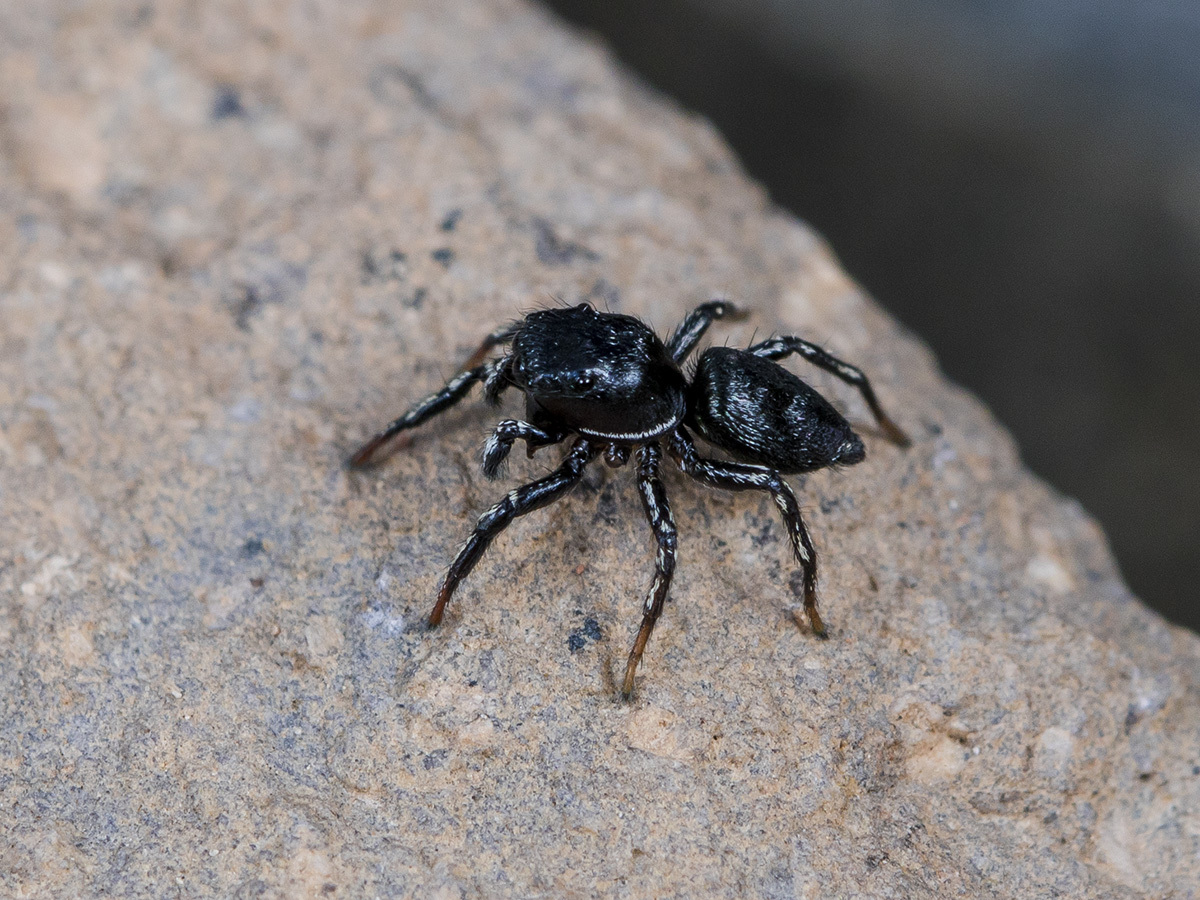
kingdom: Animalia
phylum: Arthropoda
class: Arachnida
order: Araneae
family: Salticidae
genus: Heliophanus
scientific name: Heliophanus potanini
